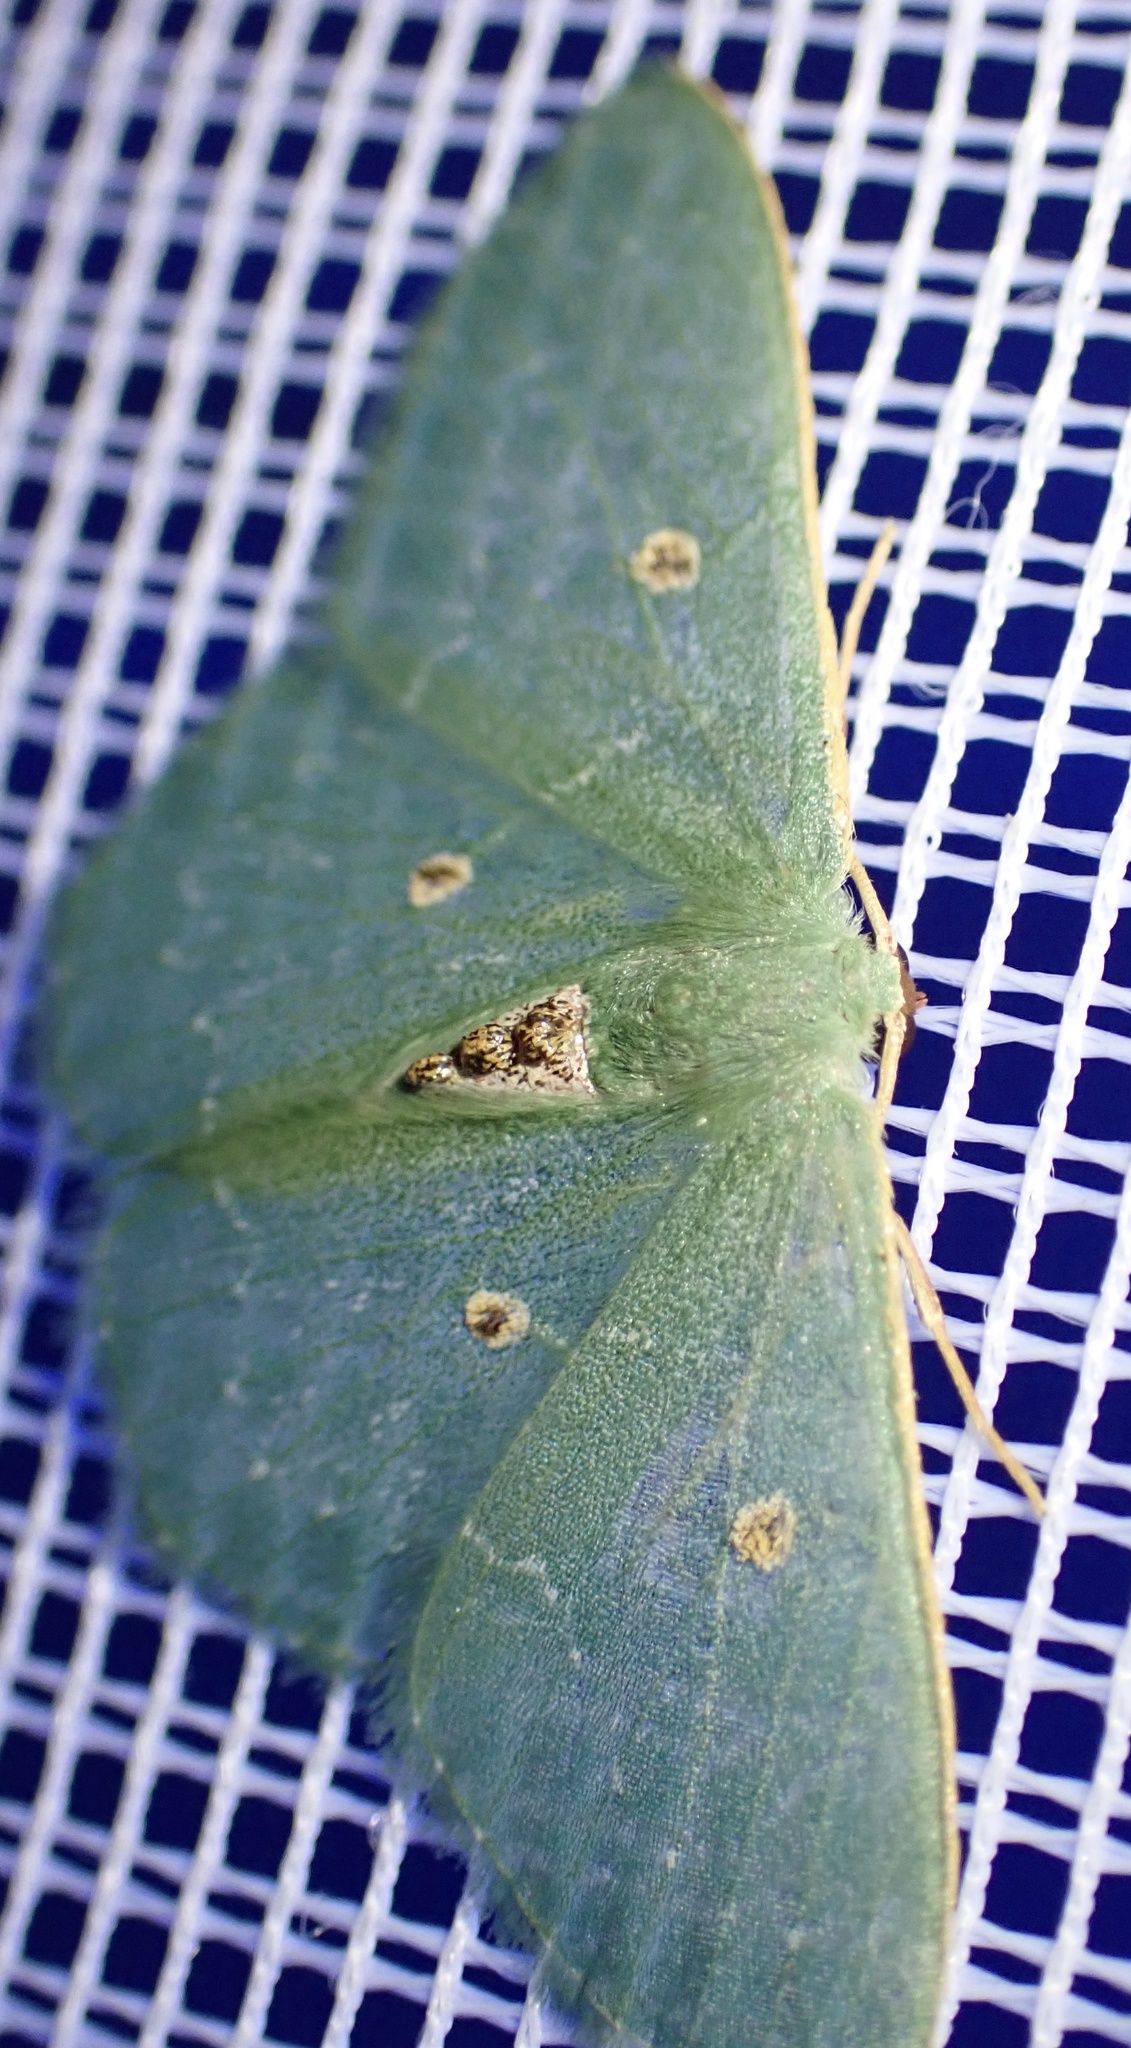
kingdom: Animalia
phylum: Arthropoda
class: Insecta
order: Lepidoptera
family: Geometridae
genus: Lophostola
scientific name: Lophostola atridisca
